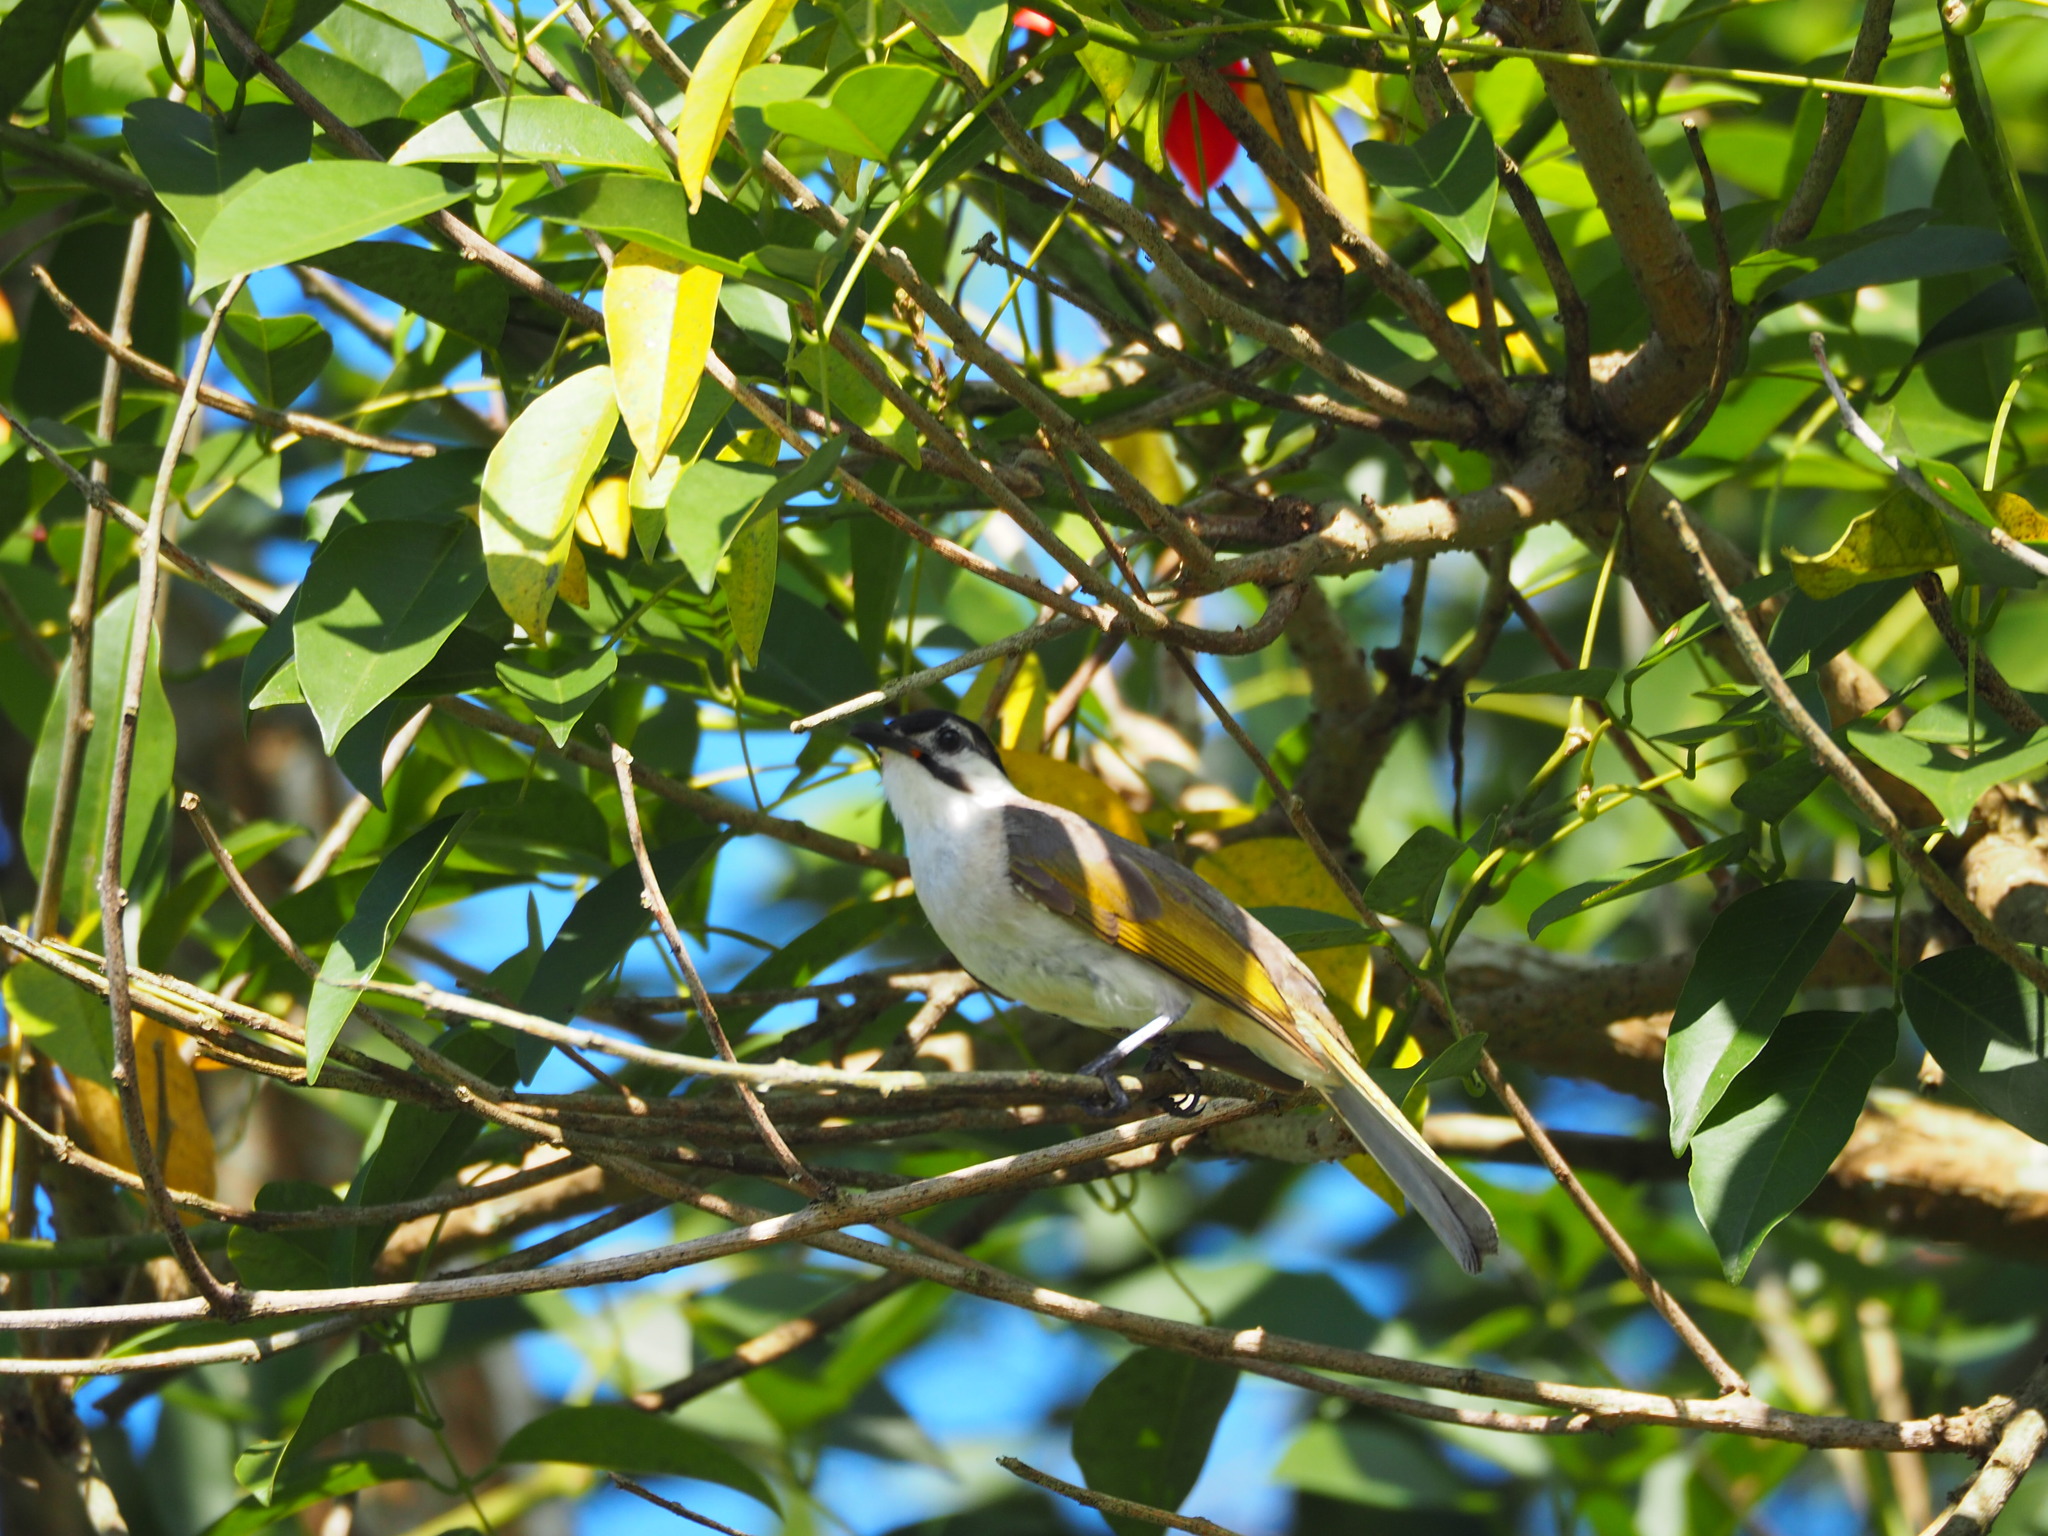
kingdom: Animalia
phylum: Chordata
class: Aves
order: Passeriformes
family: Pycnonotidae
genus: Pycnonotus
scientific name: Pycnonotus taivanus
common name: Styan's bulbul
